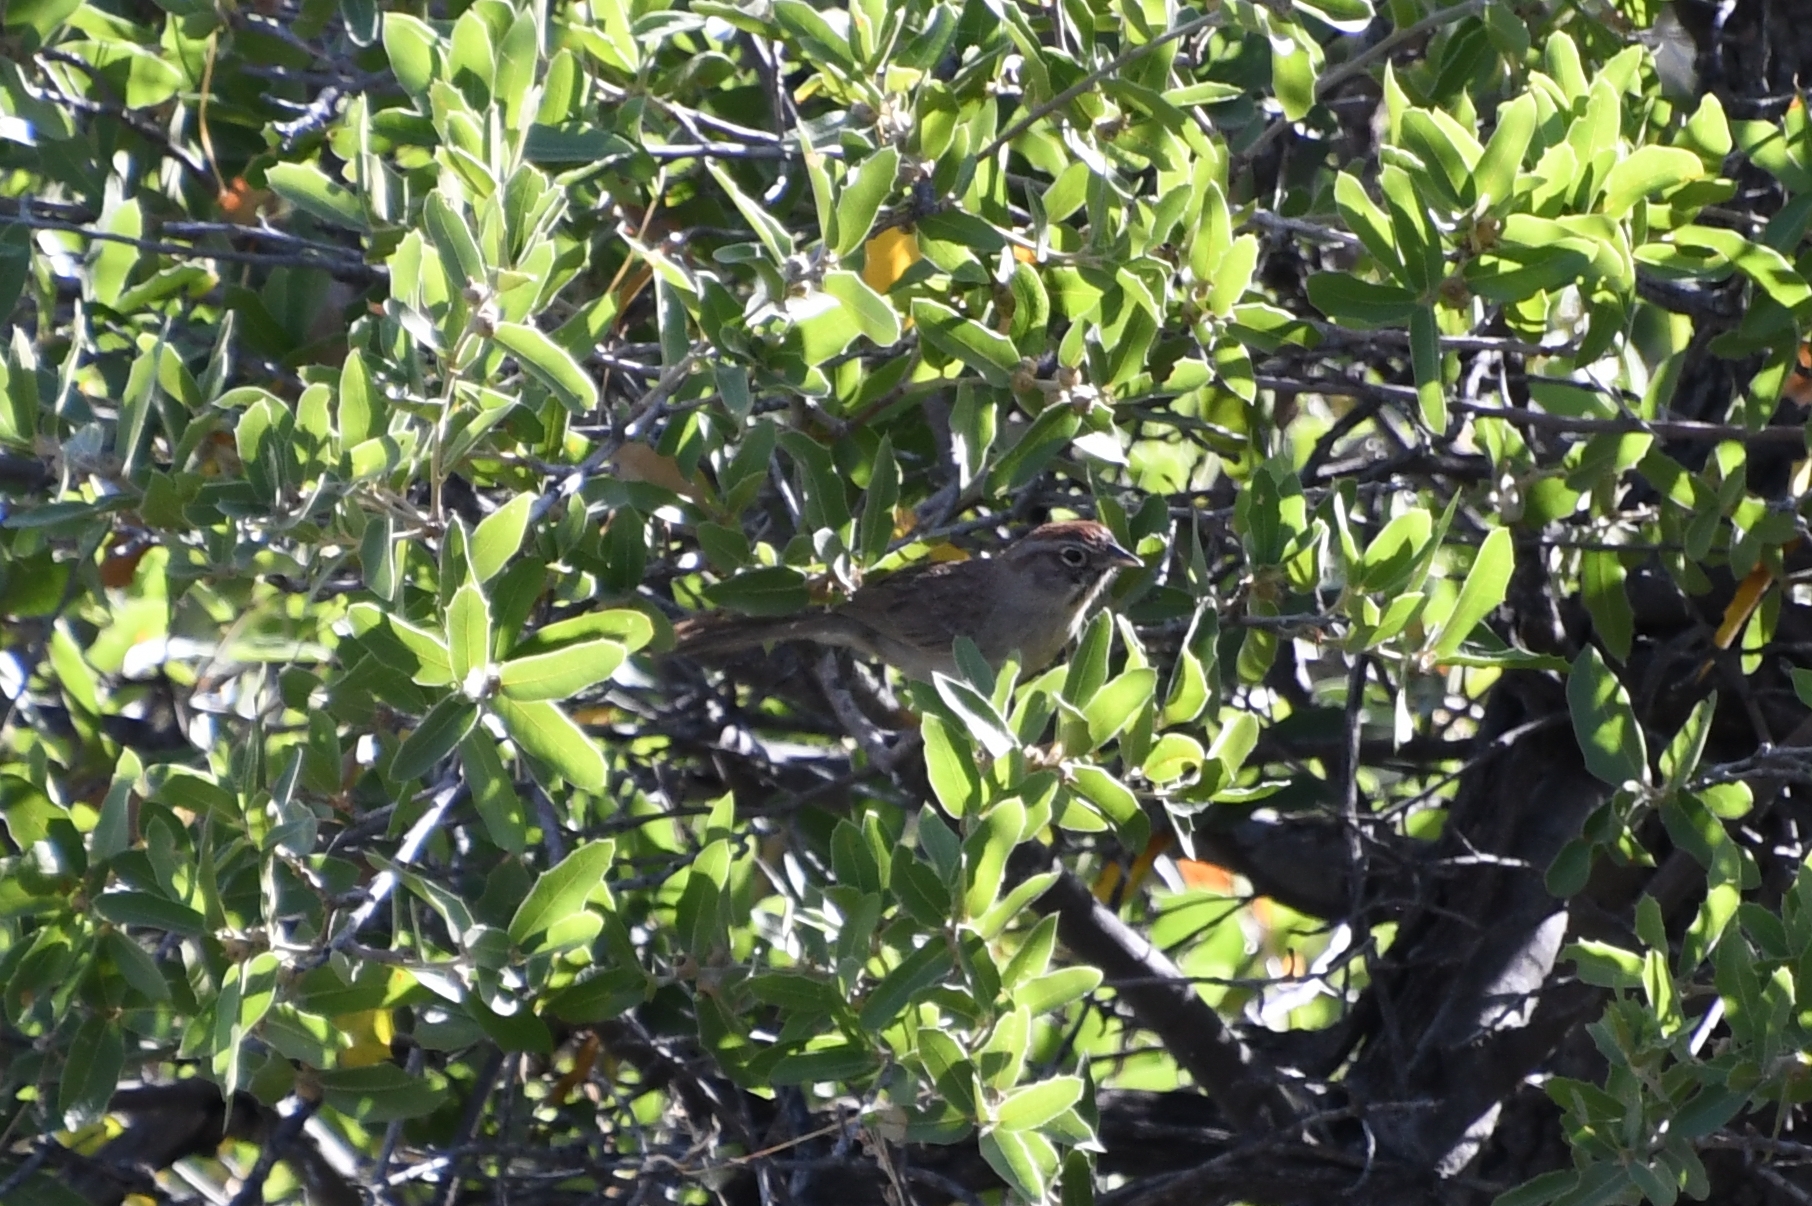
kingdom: Animalia
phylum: Chordata
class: Aves
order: Passeriformes
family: Passerellidae
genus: Aimophila
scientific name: Aimophila ruficeps
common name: Rufous-crowned sparrow
